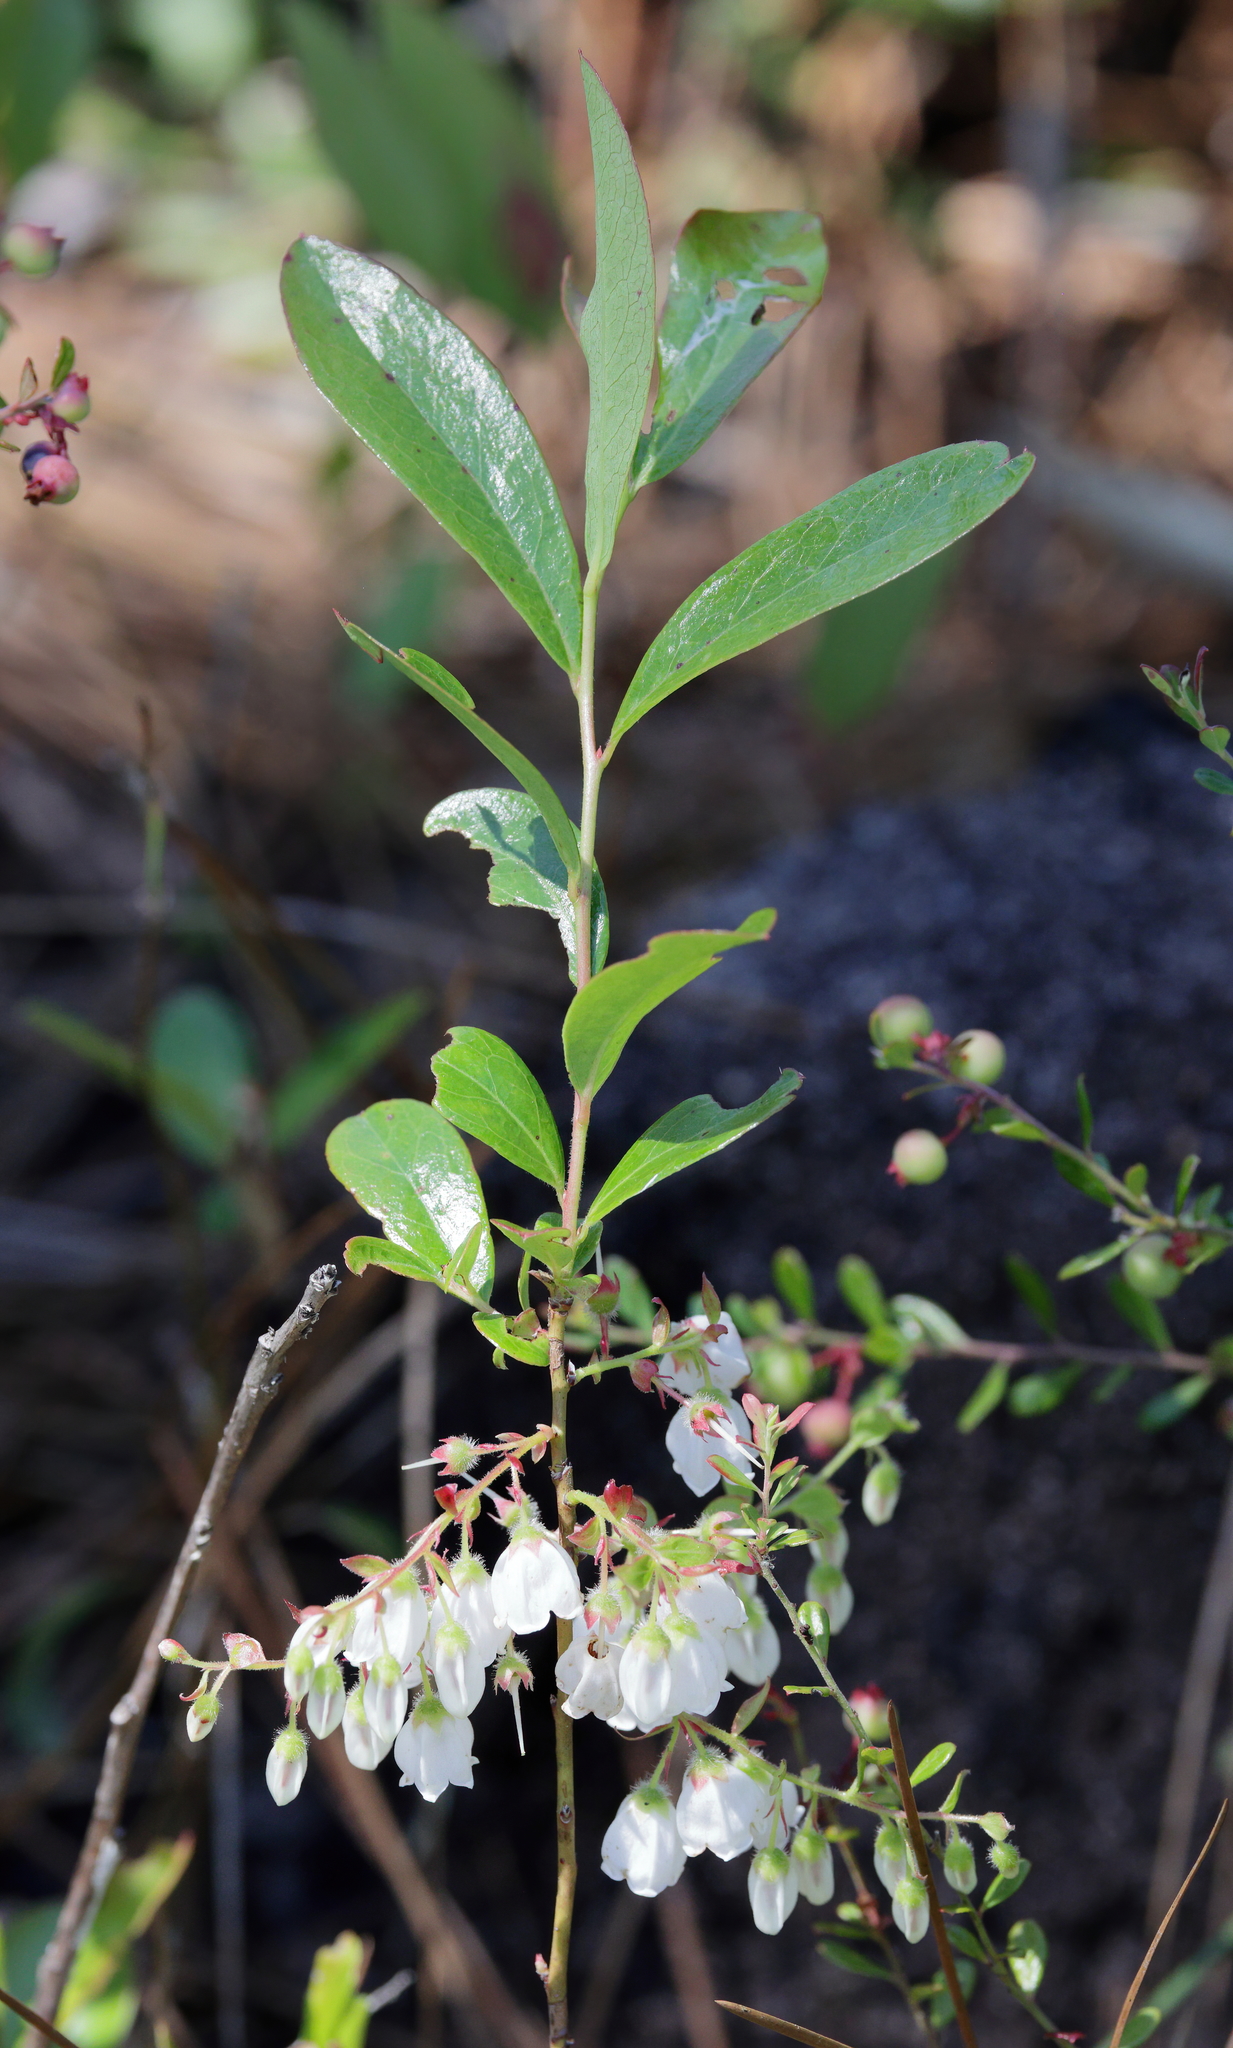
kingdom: Plantae
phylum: Tracheophyta
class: Magnoliopsida
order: Ericales
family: Ericaceae
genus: Gaylussacia
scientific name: Gaylussacia mosieri
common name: Hirsute huckleberry
